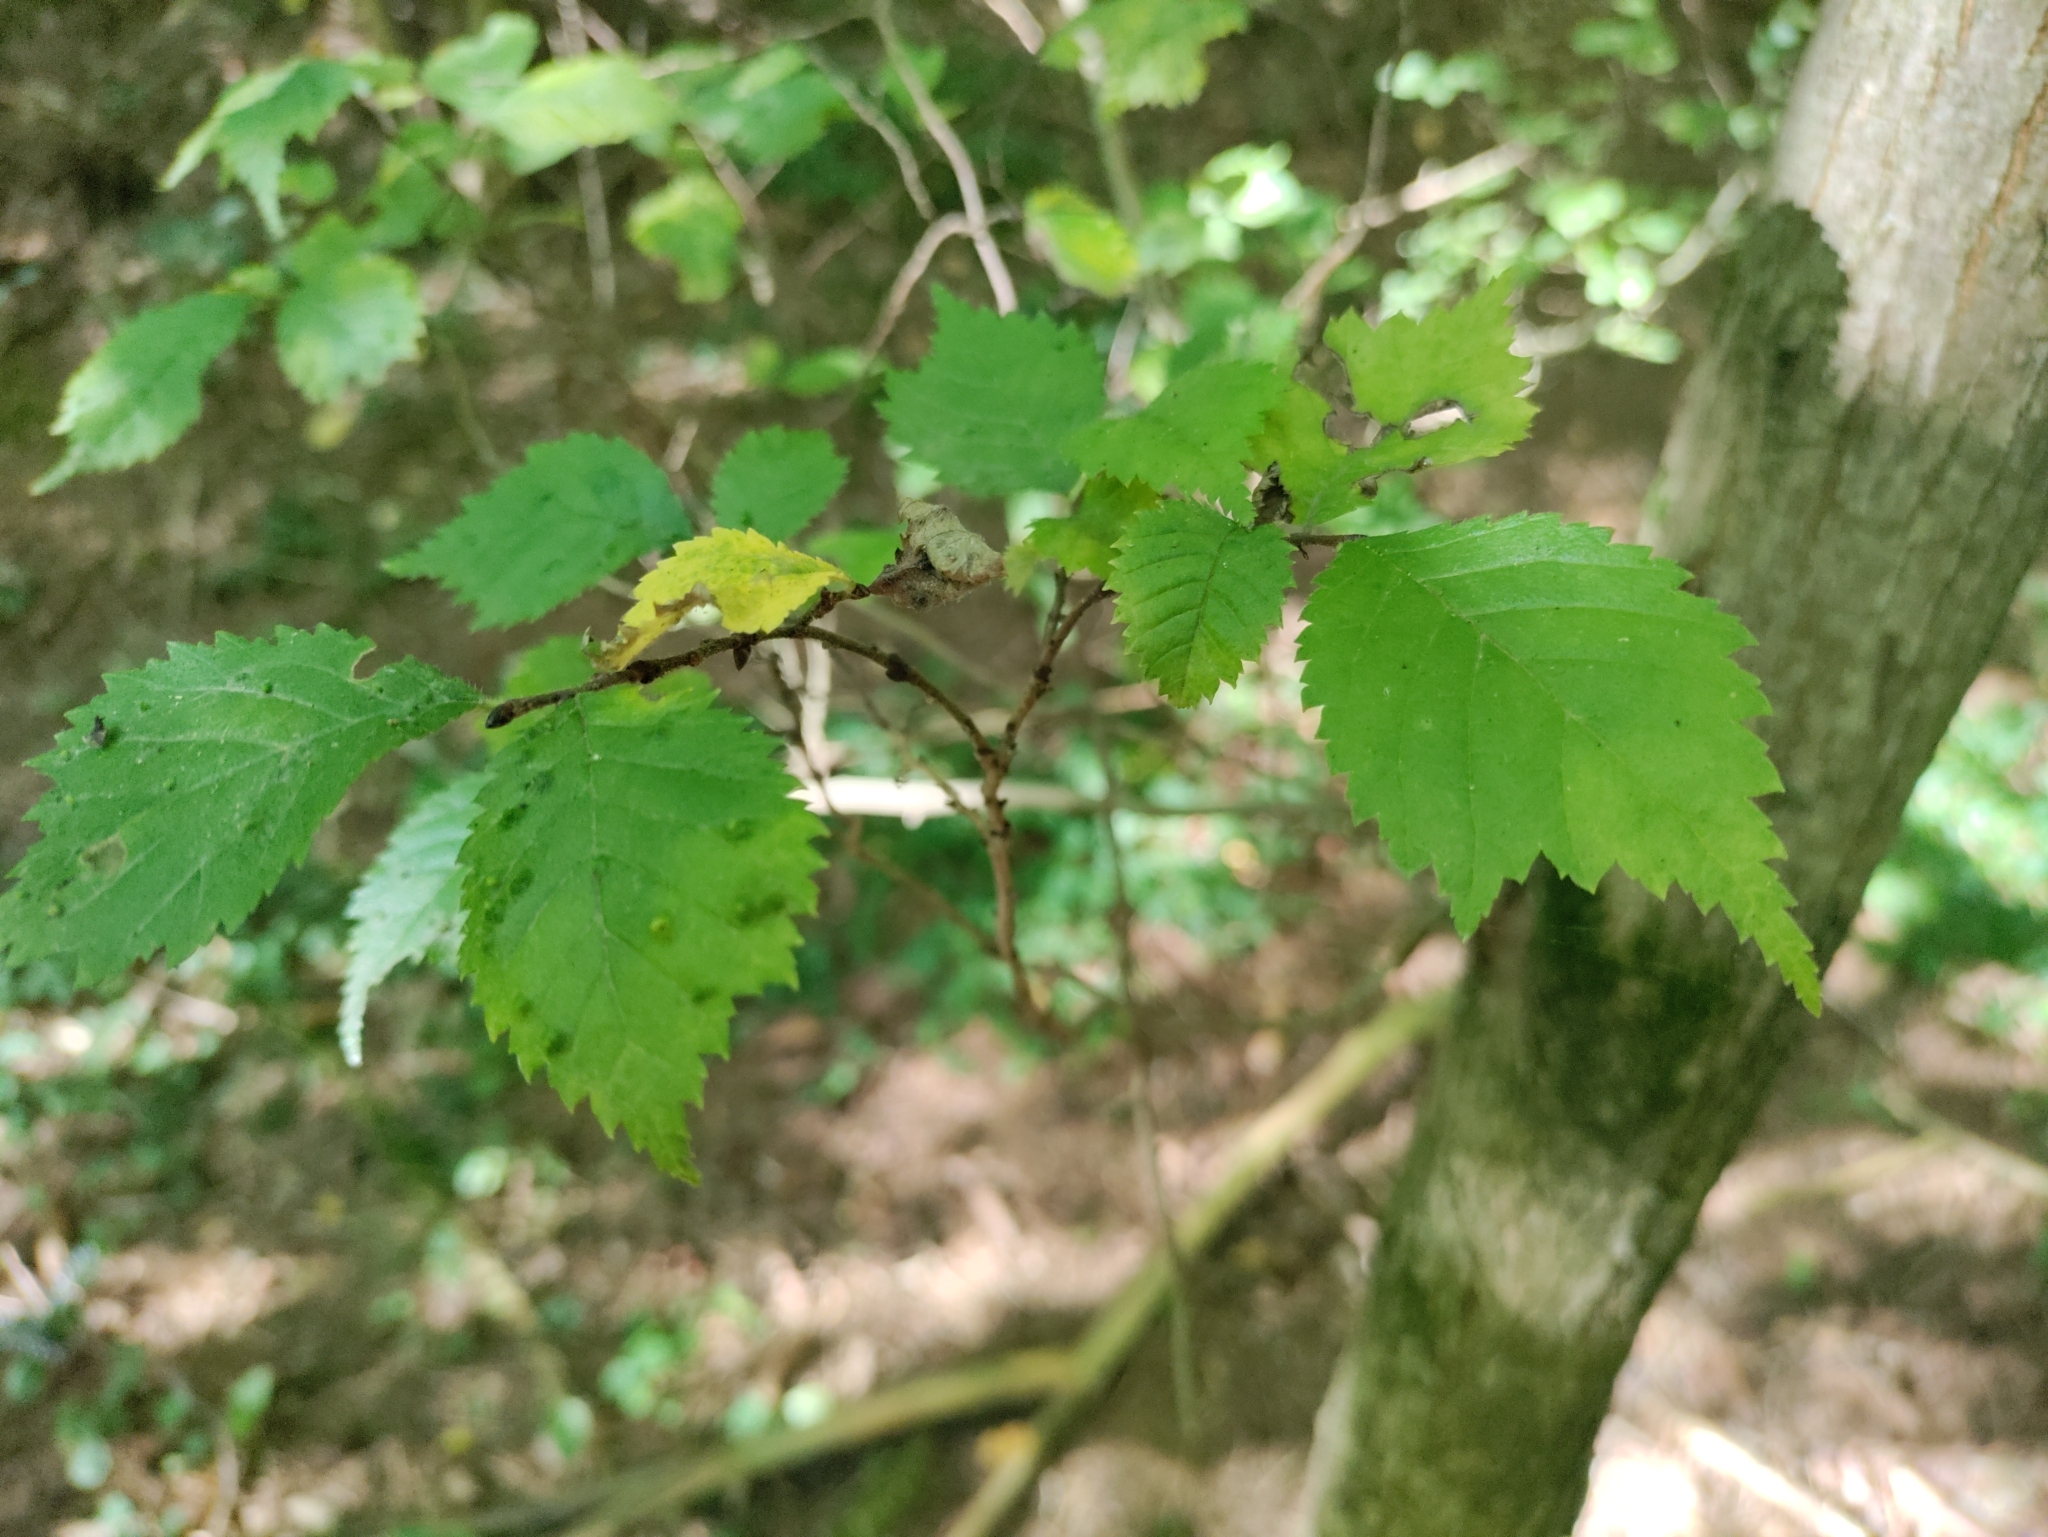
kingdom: Plantae
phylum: Tracheophyta
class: Magnoliopsida
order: Rosales
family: Ulmaceae
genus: Ulmus
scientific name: Ulmus glabra
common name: Wych elm
